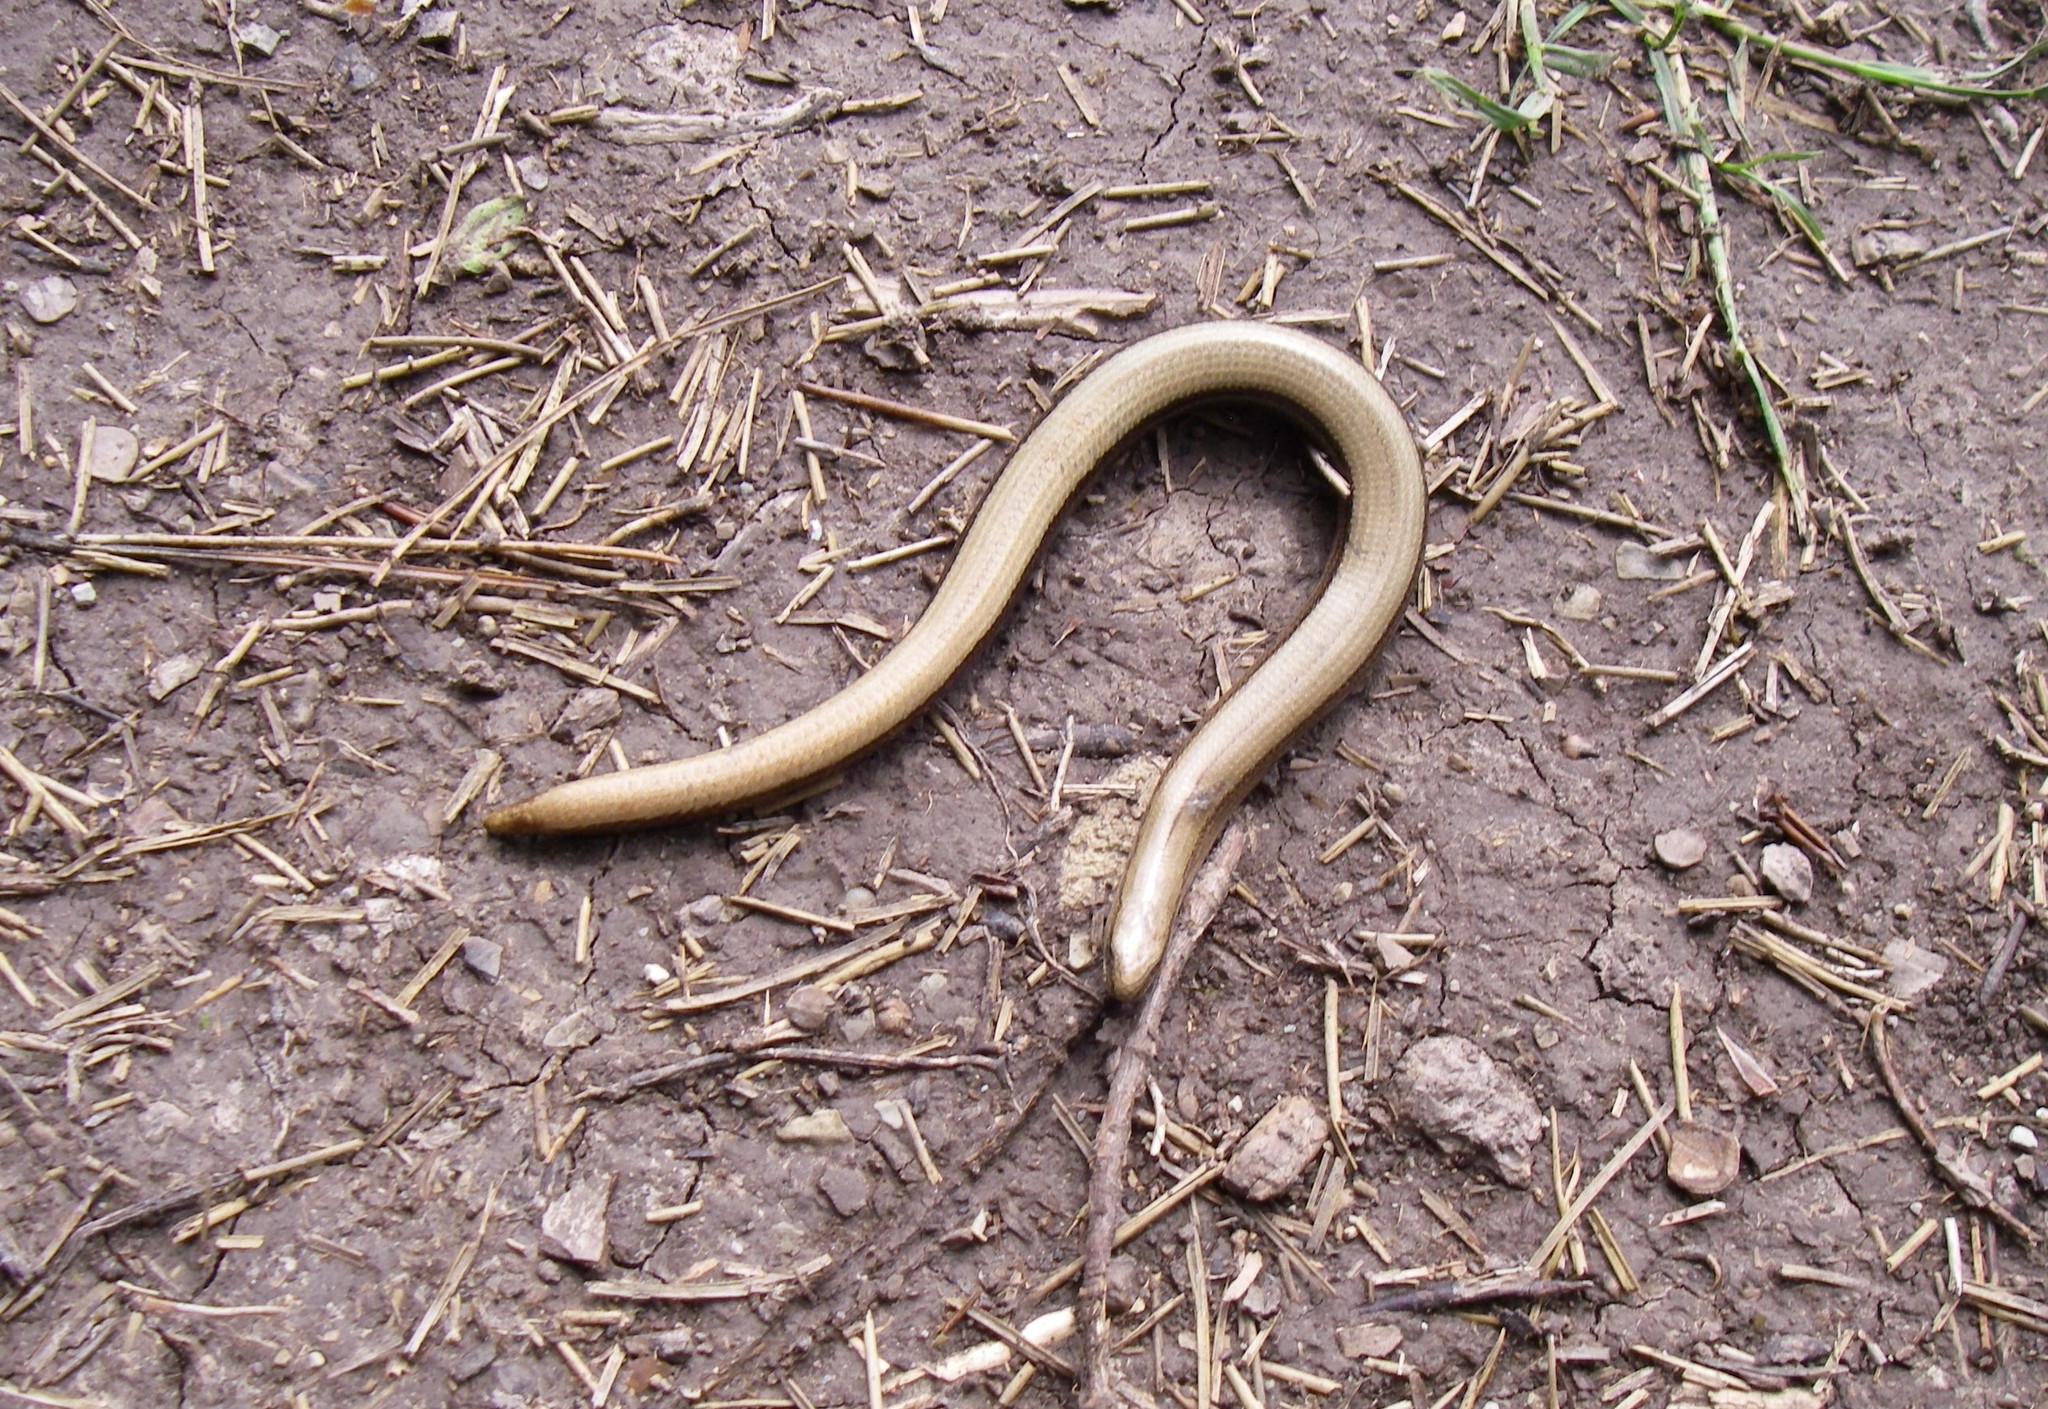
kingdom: Animalia
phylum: Chordata
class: Squamata
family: Anguidae
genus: Anguis
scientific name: Anguis fragilis
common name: Slow worm
